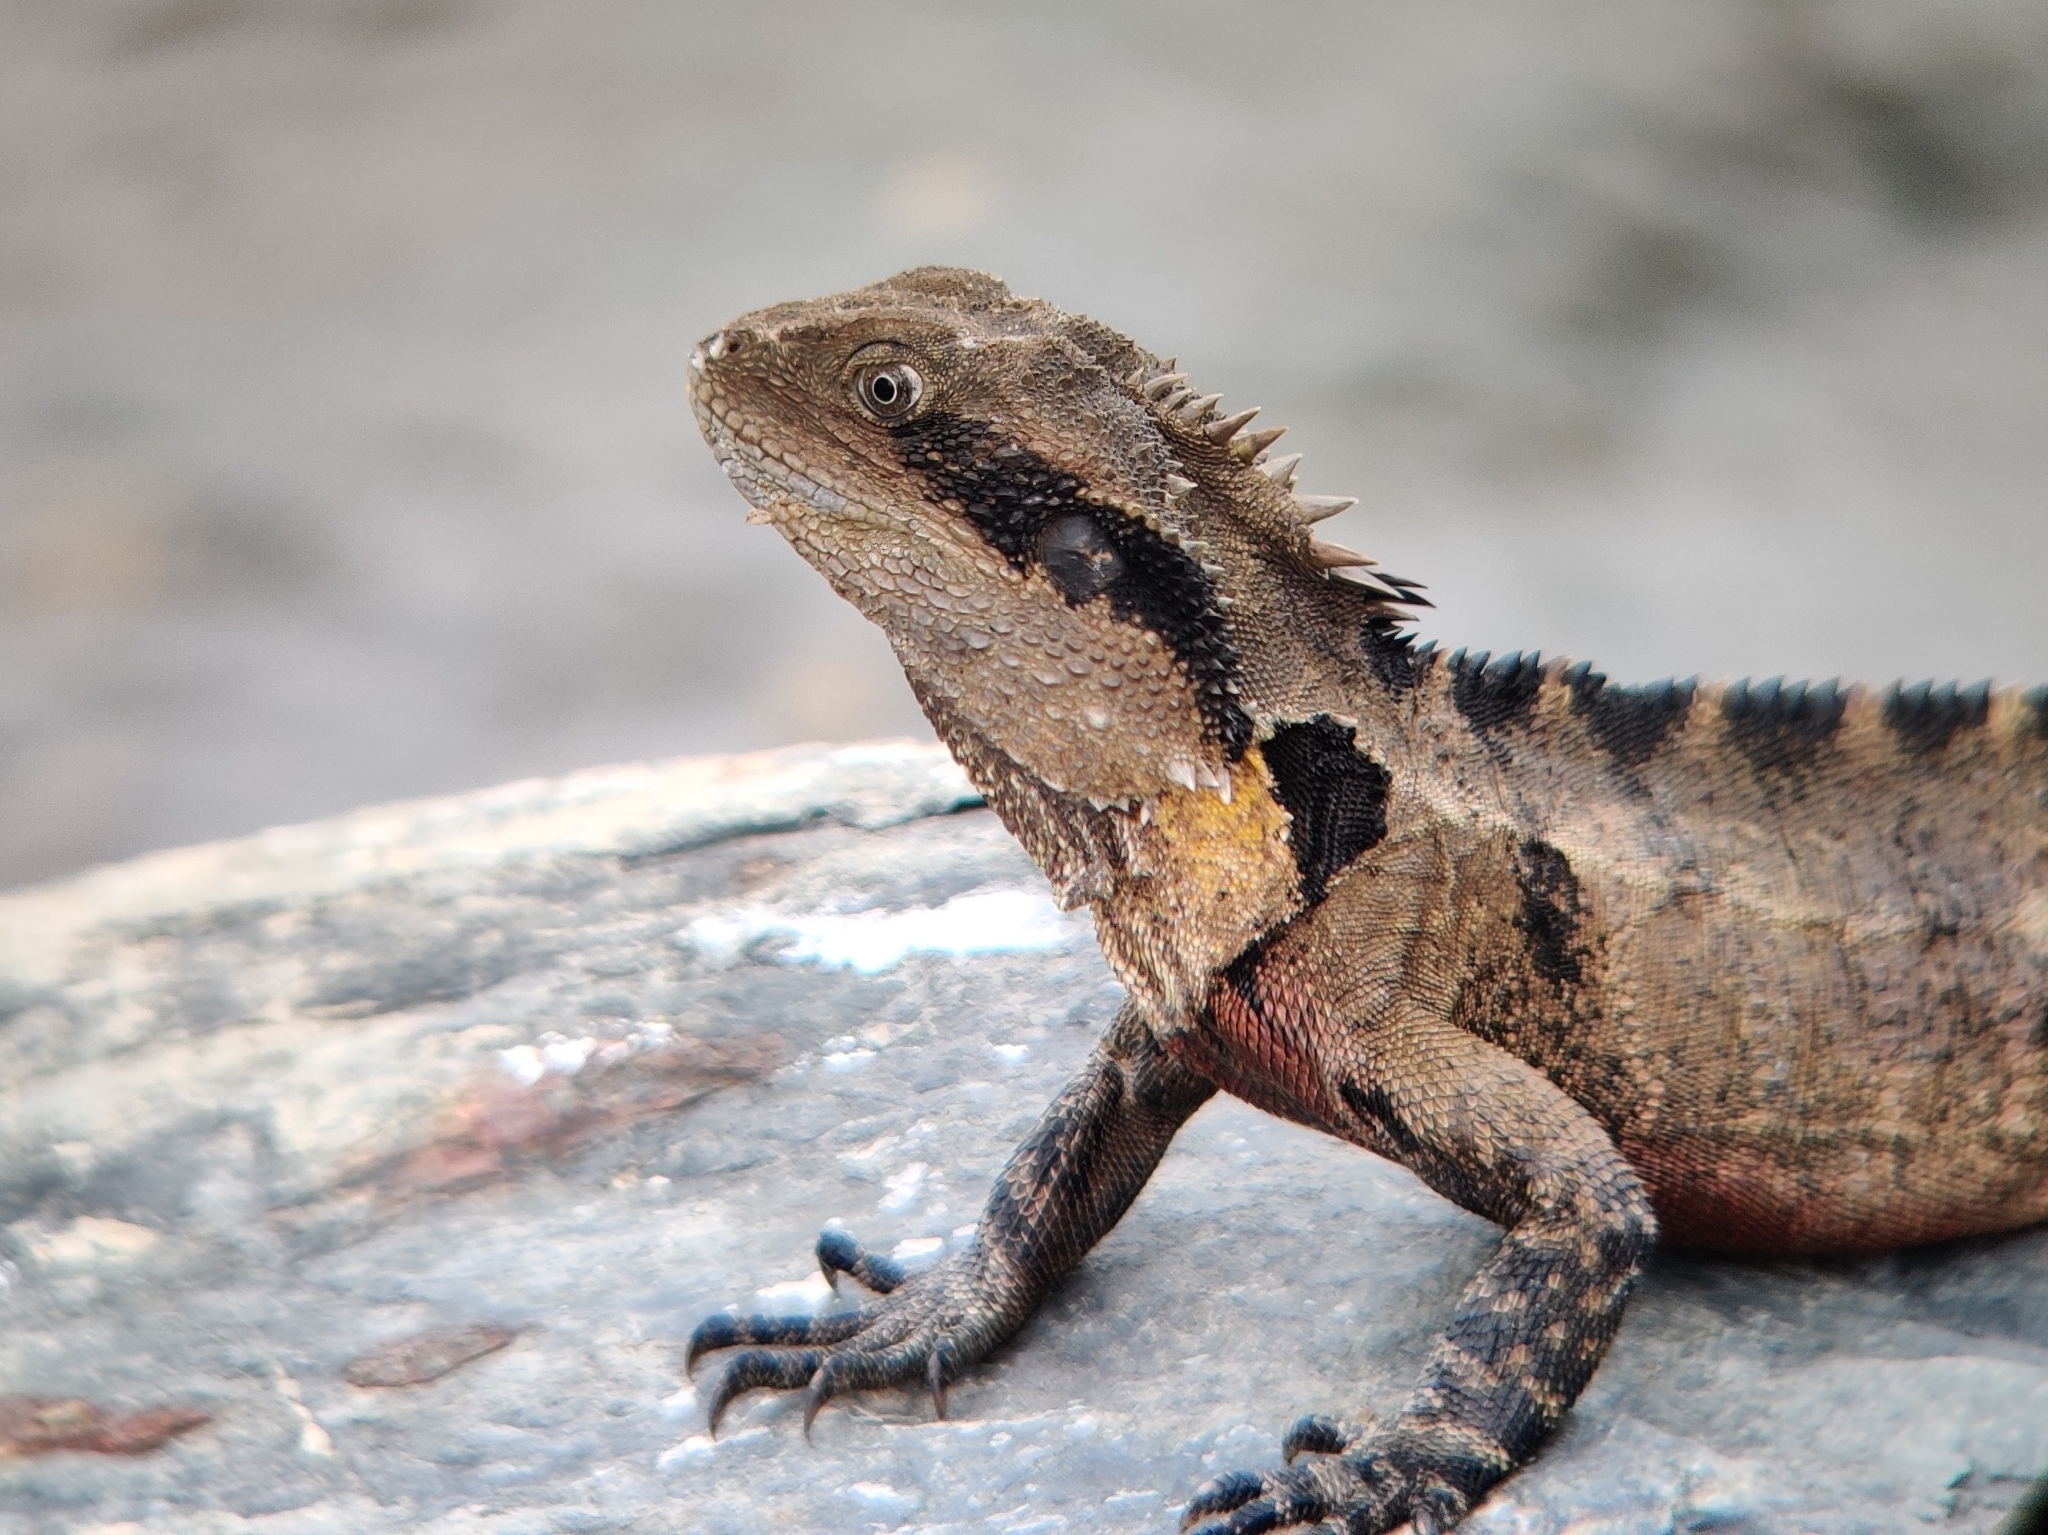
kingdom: Animalia
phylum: Chordata
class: Squamata
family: Agamidae
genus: Intellagama
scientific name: Intellagama lesueurii
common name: Eastern water dragon
